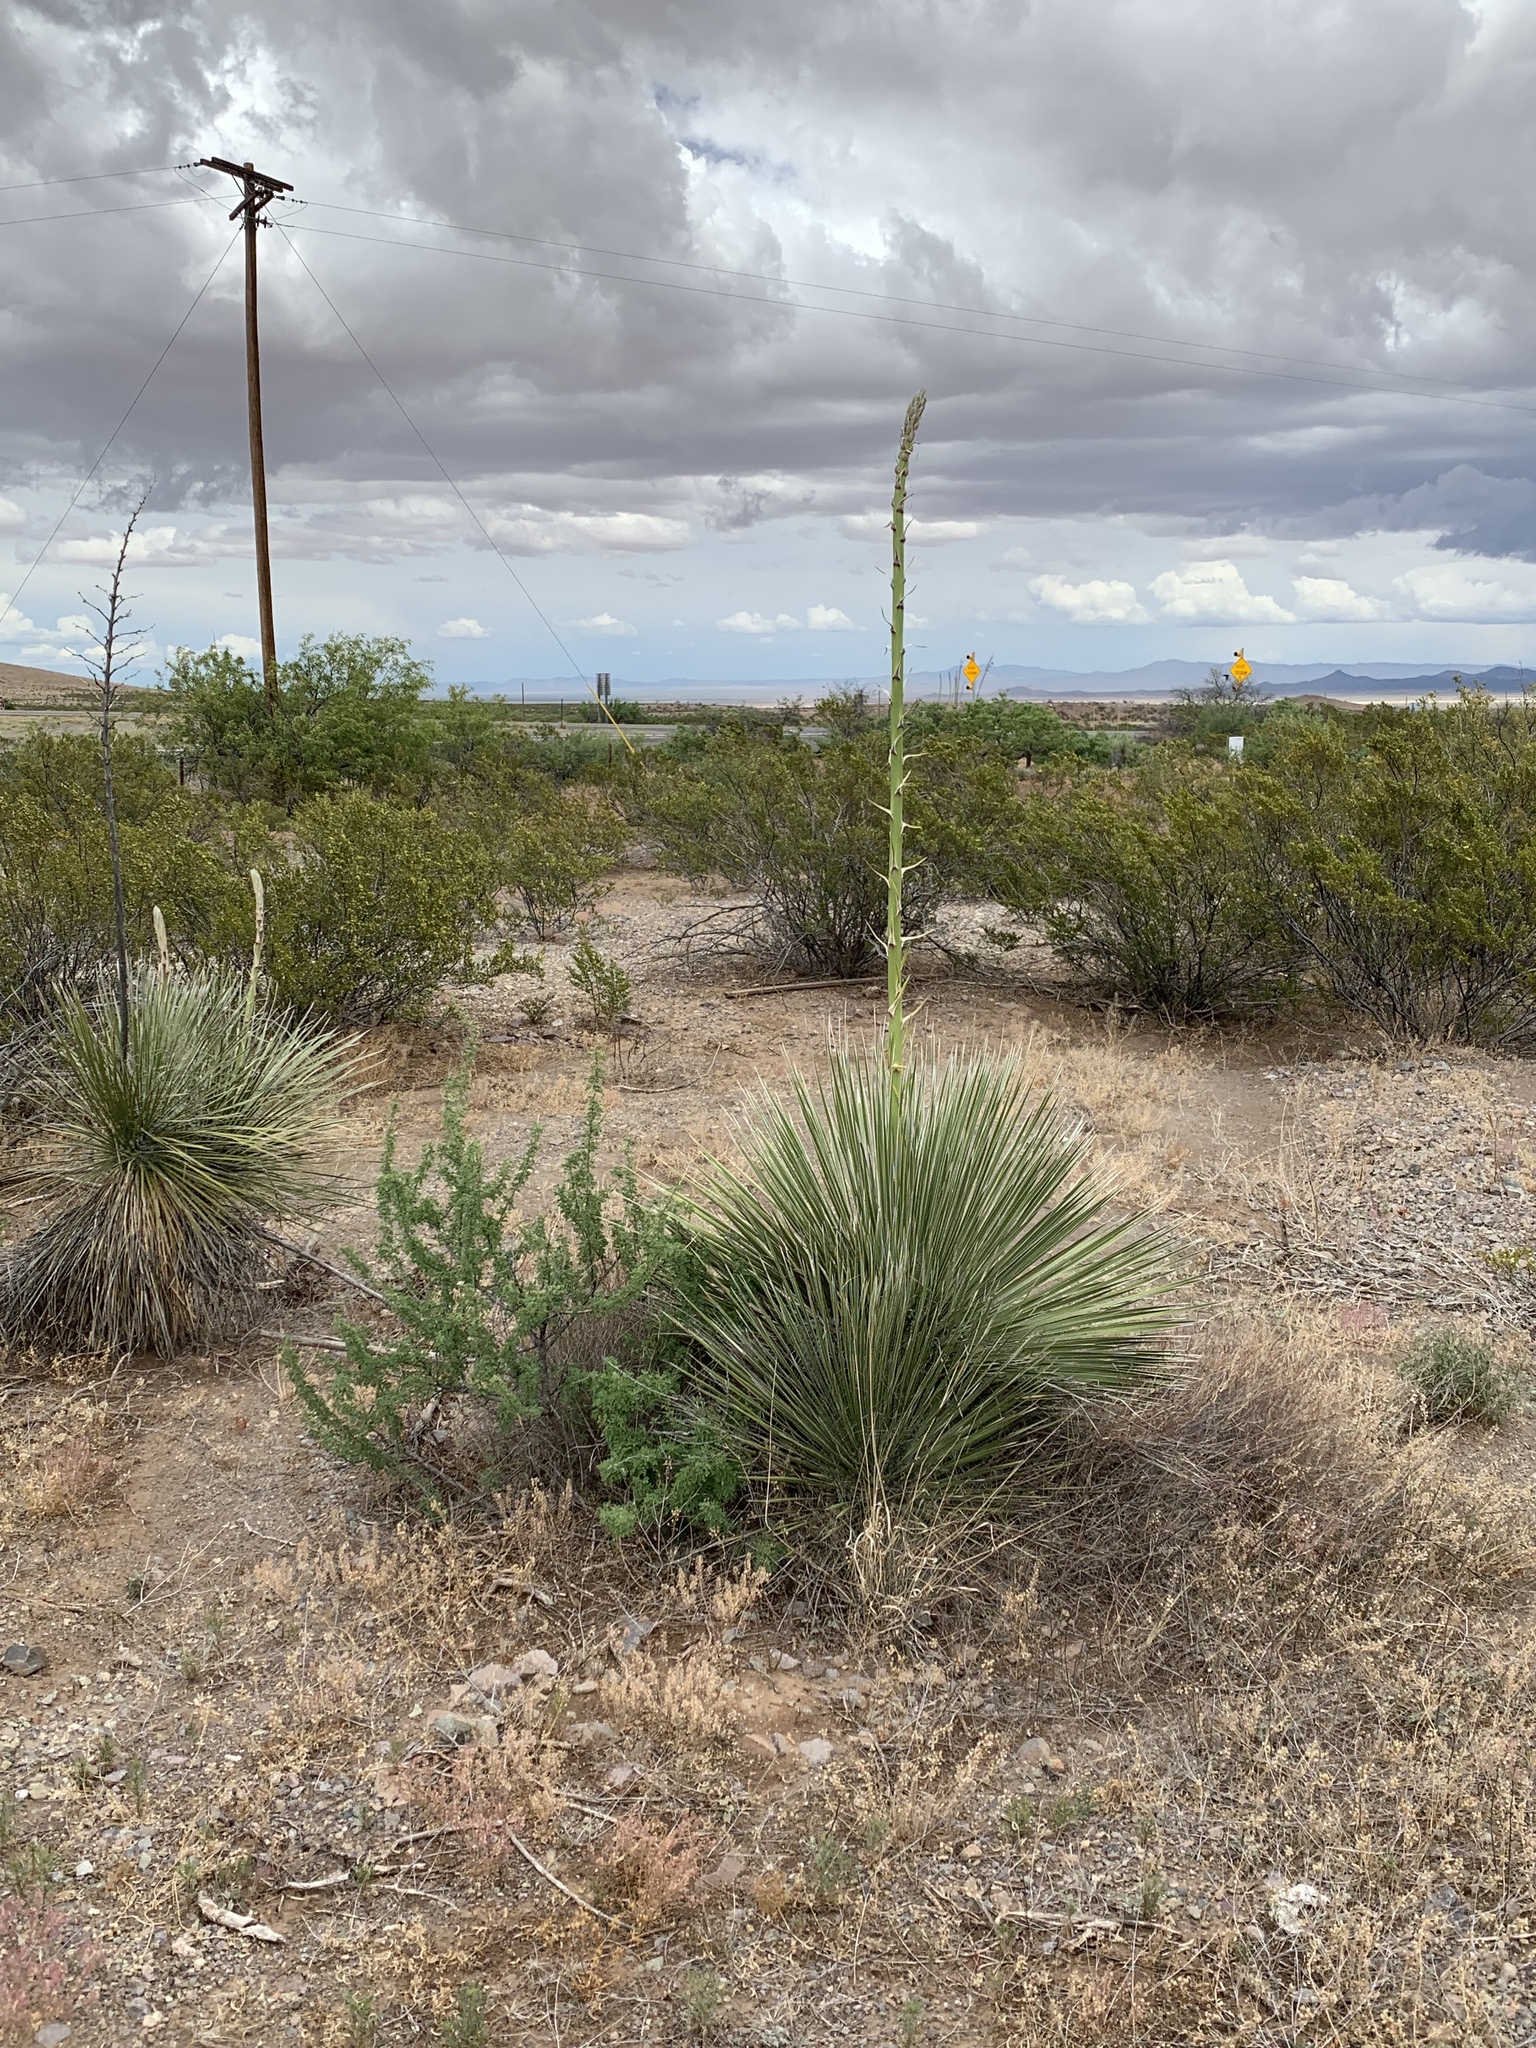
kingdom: Plantae
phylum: Tracheophyta
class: Liliopsida
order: Asparagales
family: Asparagaceae
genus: Dasylirion
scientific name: Dasylirion wheeleri
